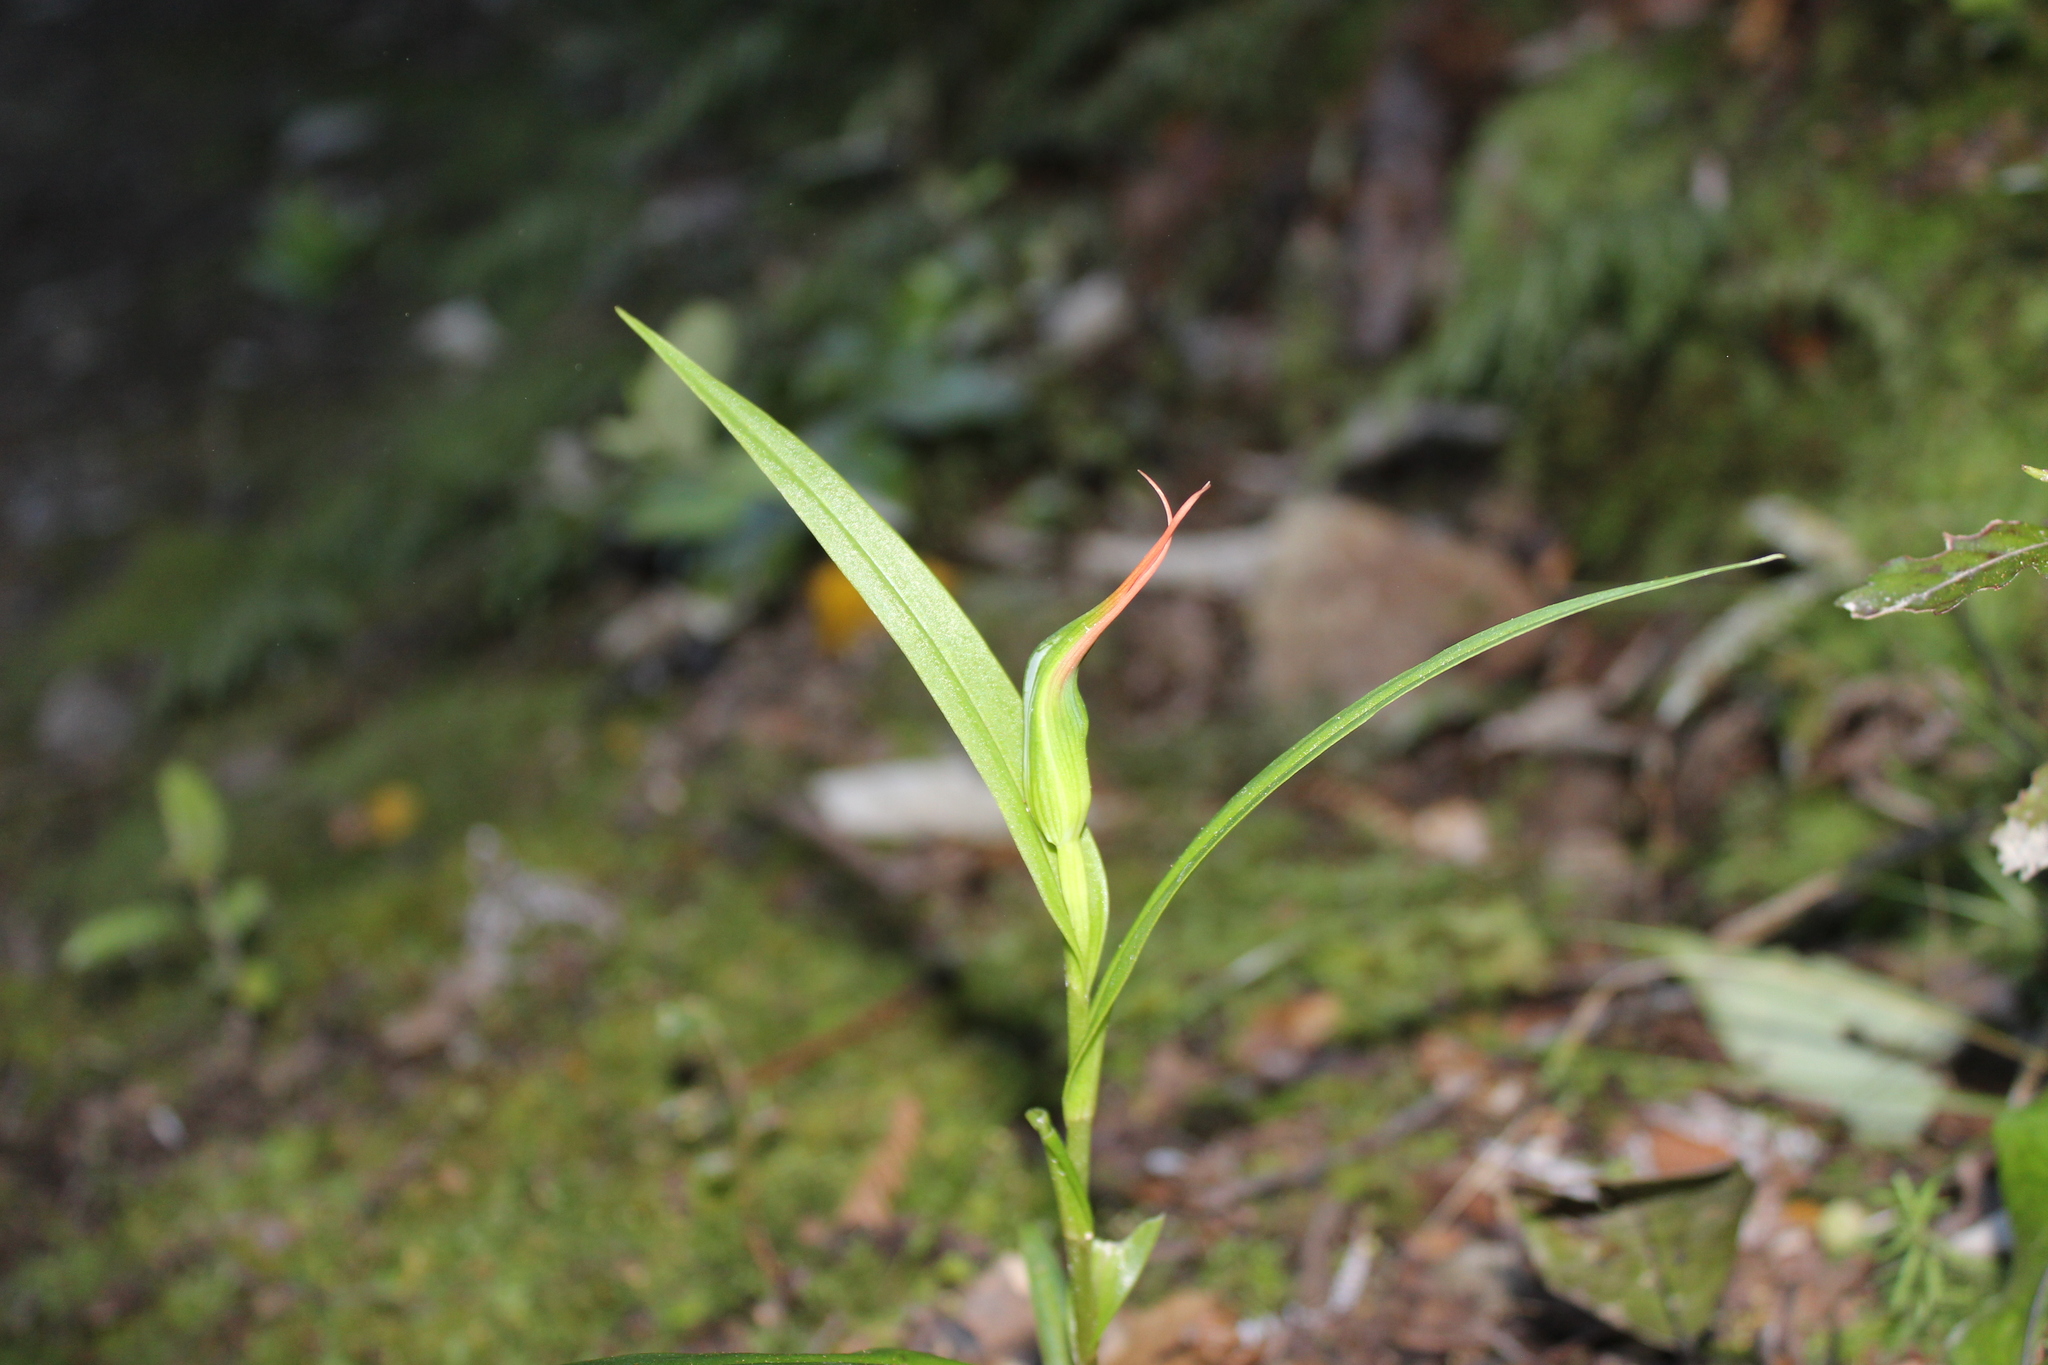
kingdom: Plantae
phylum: Tracheophyta
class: Liliopsida
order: Asparagales
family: Orchidaceae
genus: Pterostylis
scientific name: Pterostylis banksii
